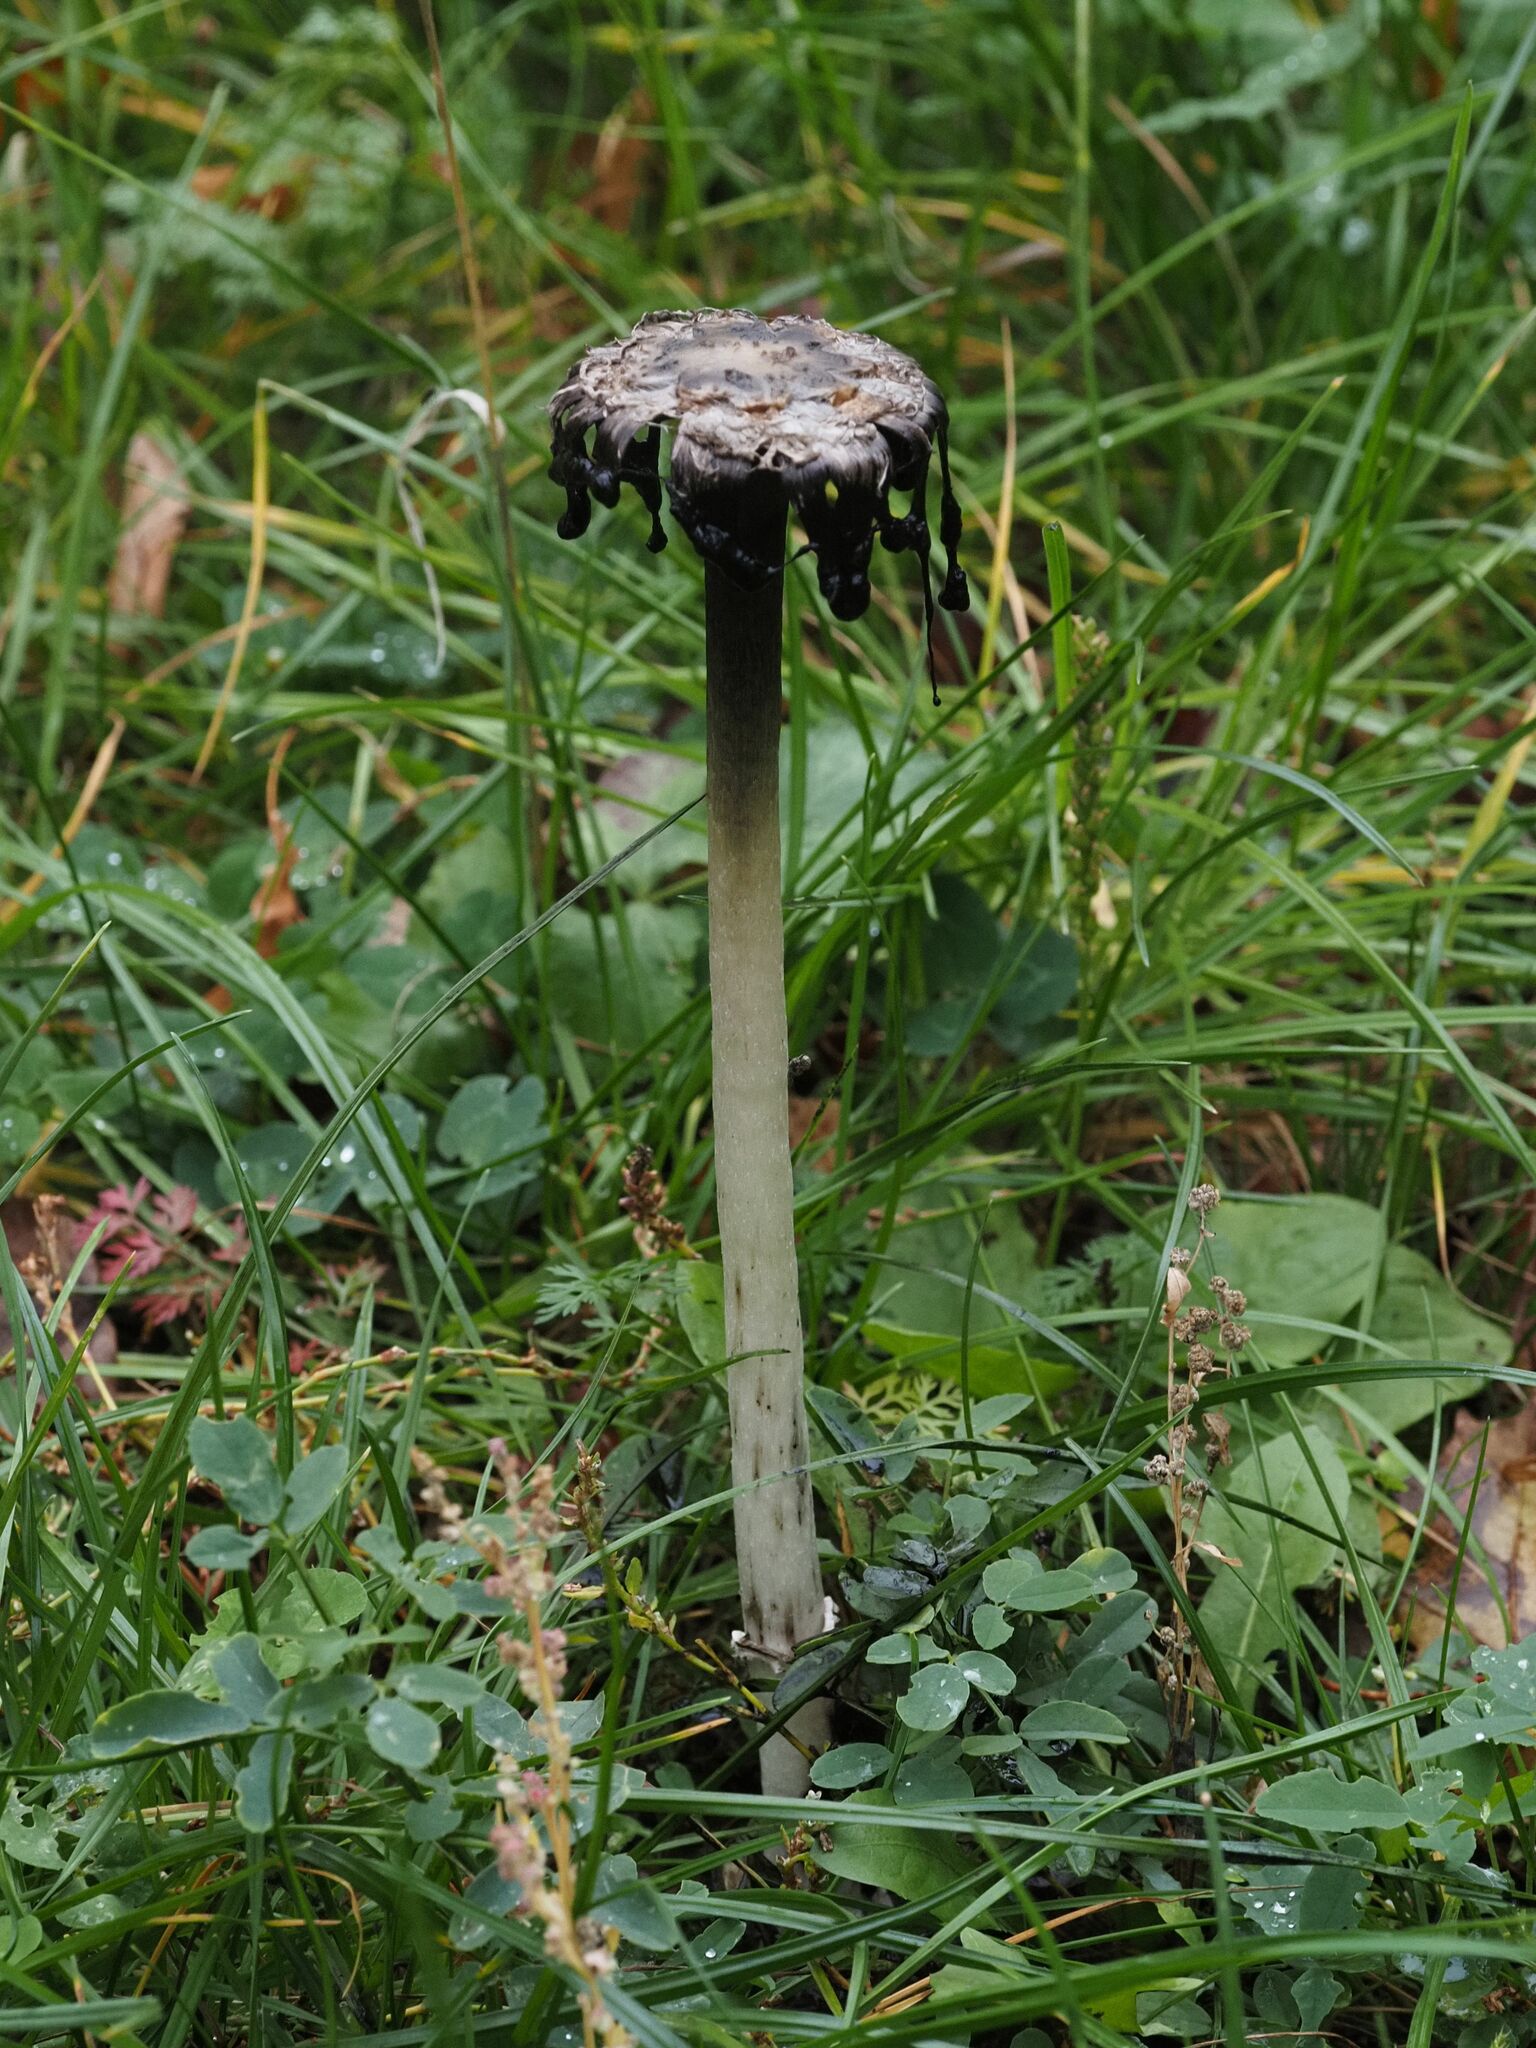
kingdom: Fungi
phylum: Basidiomycota
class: Agaricomycetes
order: Agaricales
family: Agaricaceae
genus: Coprinus
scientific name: Coprinus comatus
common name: Lawyer's wig
